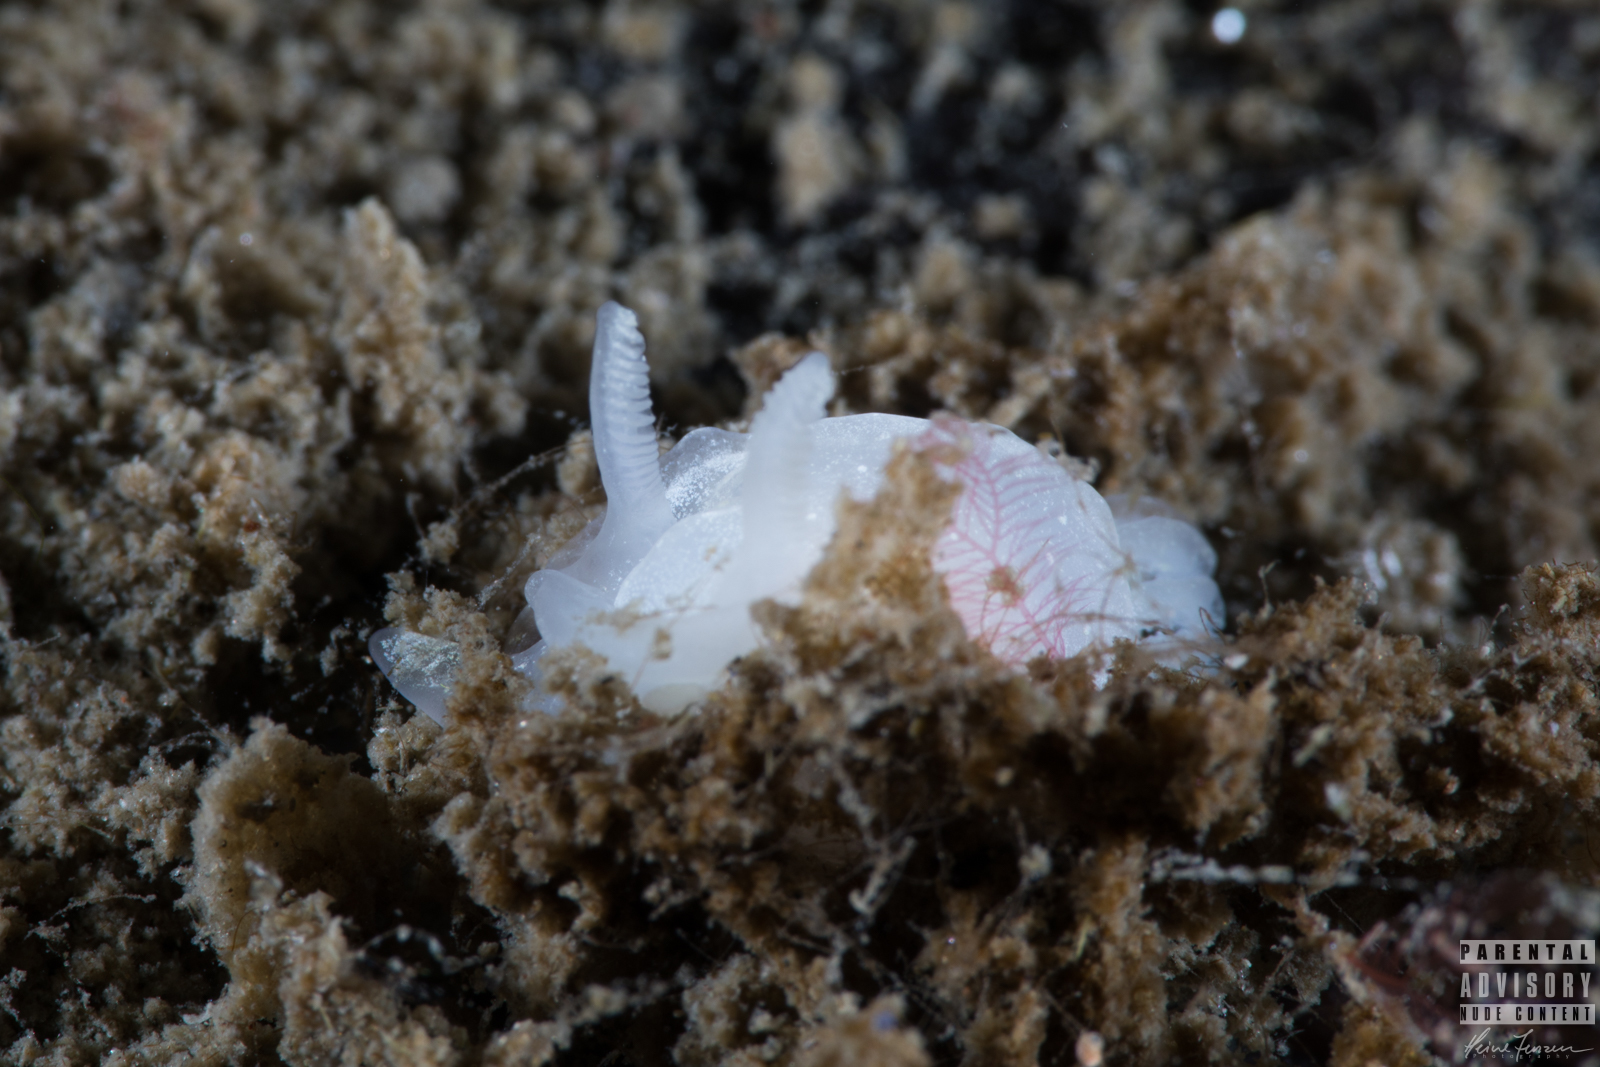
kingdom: Animalia
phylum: Mollusca
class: Gastropoda
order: Nudibranchia
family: Goniodorididae
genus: Okenia
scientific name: Okenia
